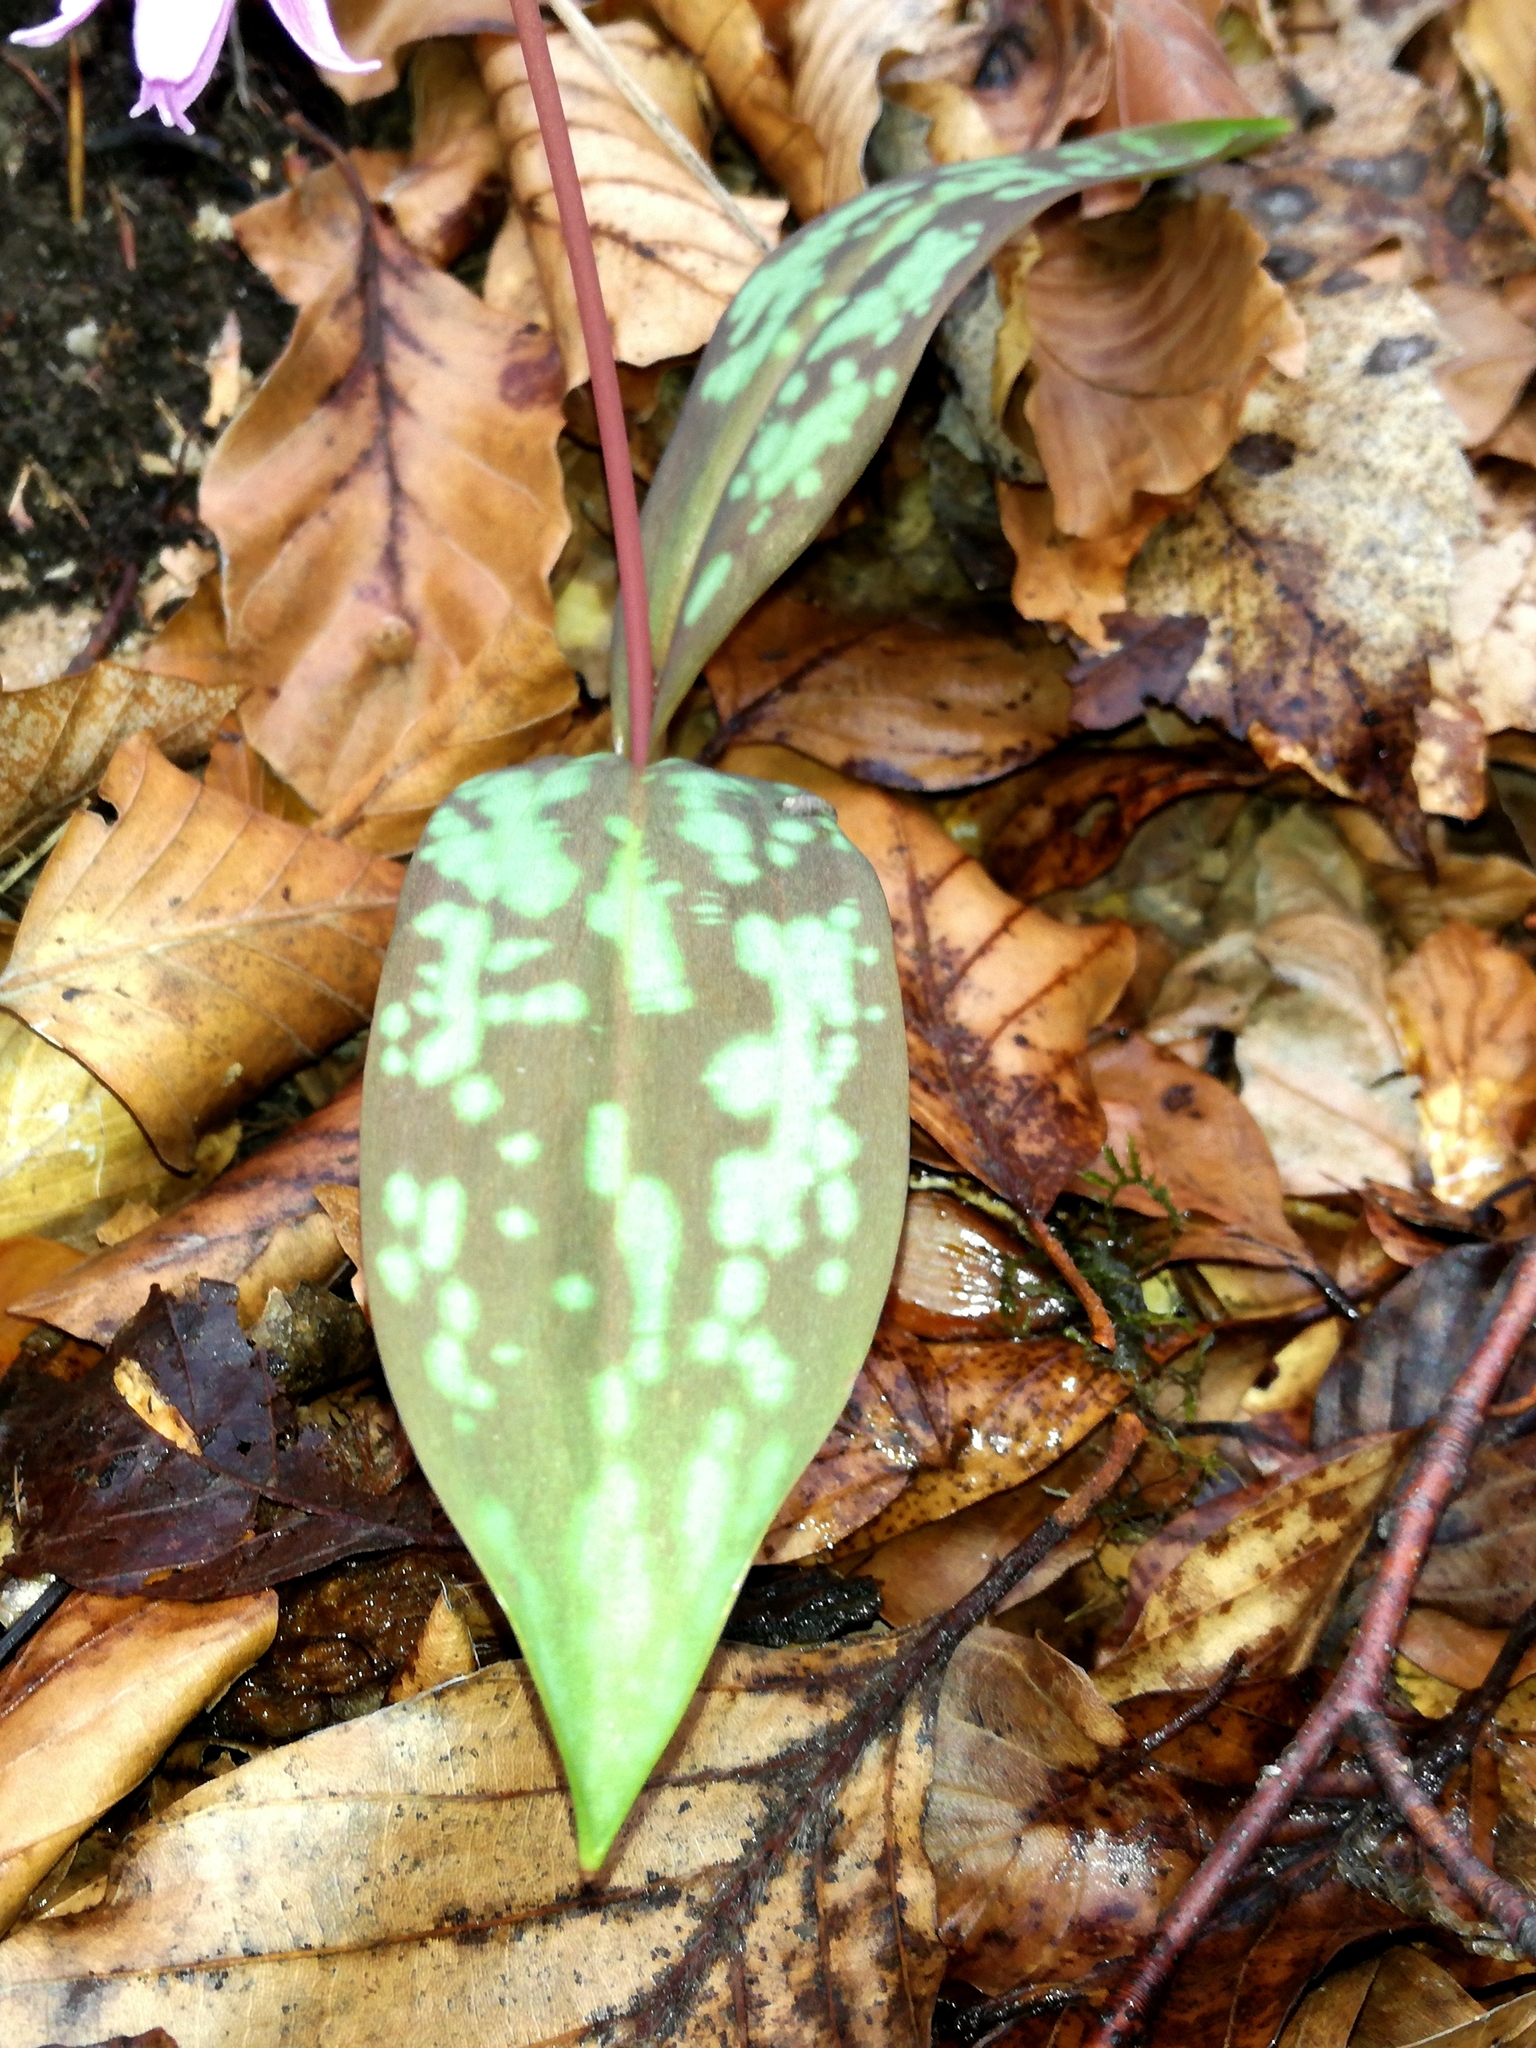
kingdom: Plantae
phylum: Tracheophyta
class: Liliopsida
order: Liliales
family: Liliaceae
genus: Erythronium
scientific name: Erythronium dens-canis
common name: Dog's-tooth-violet
